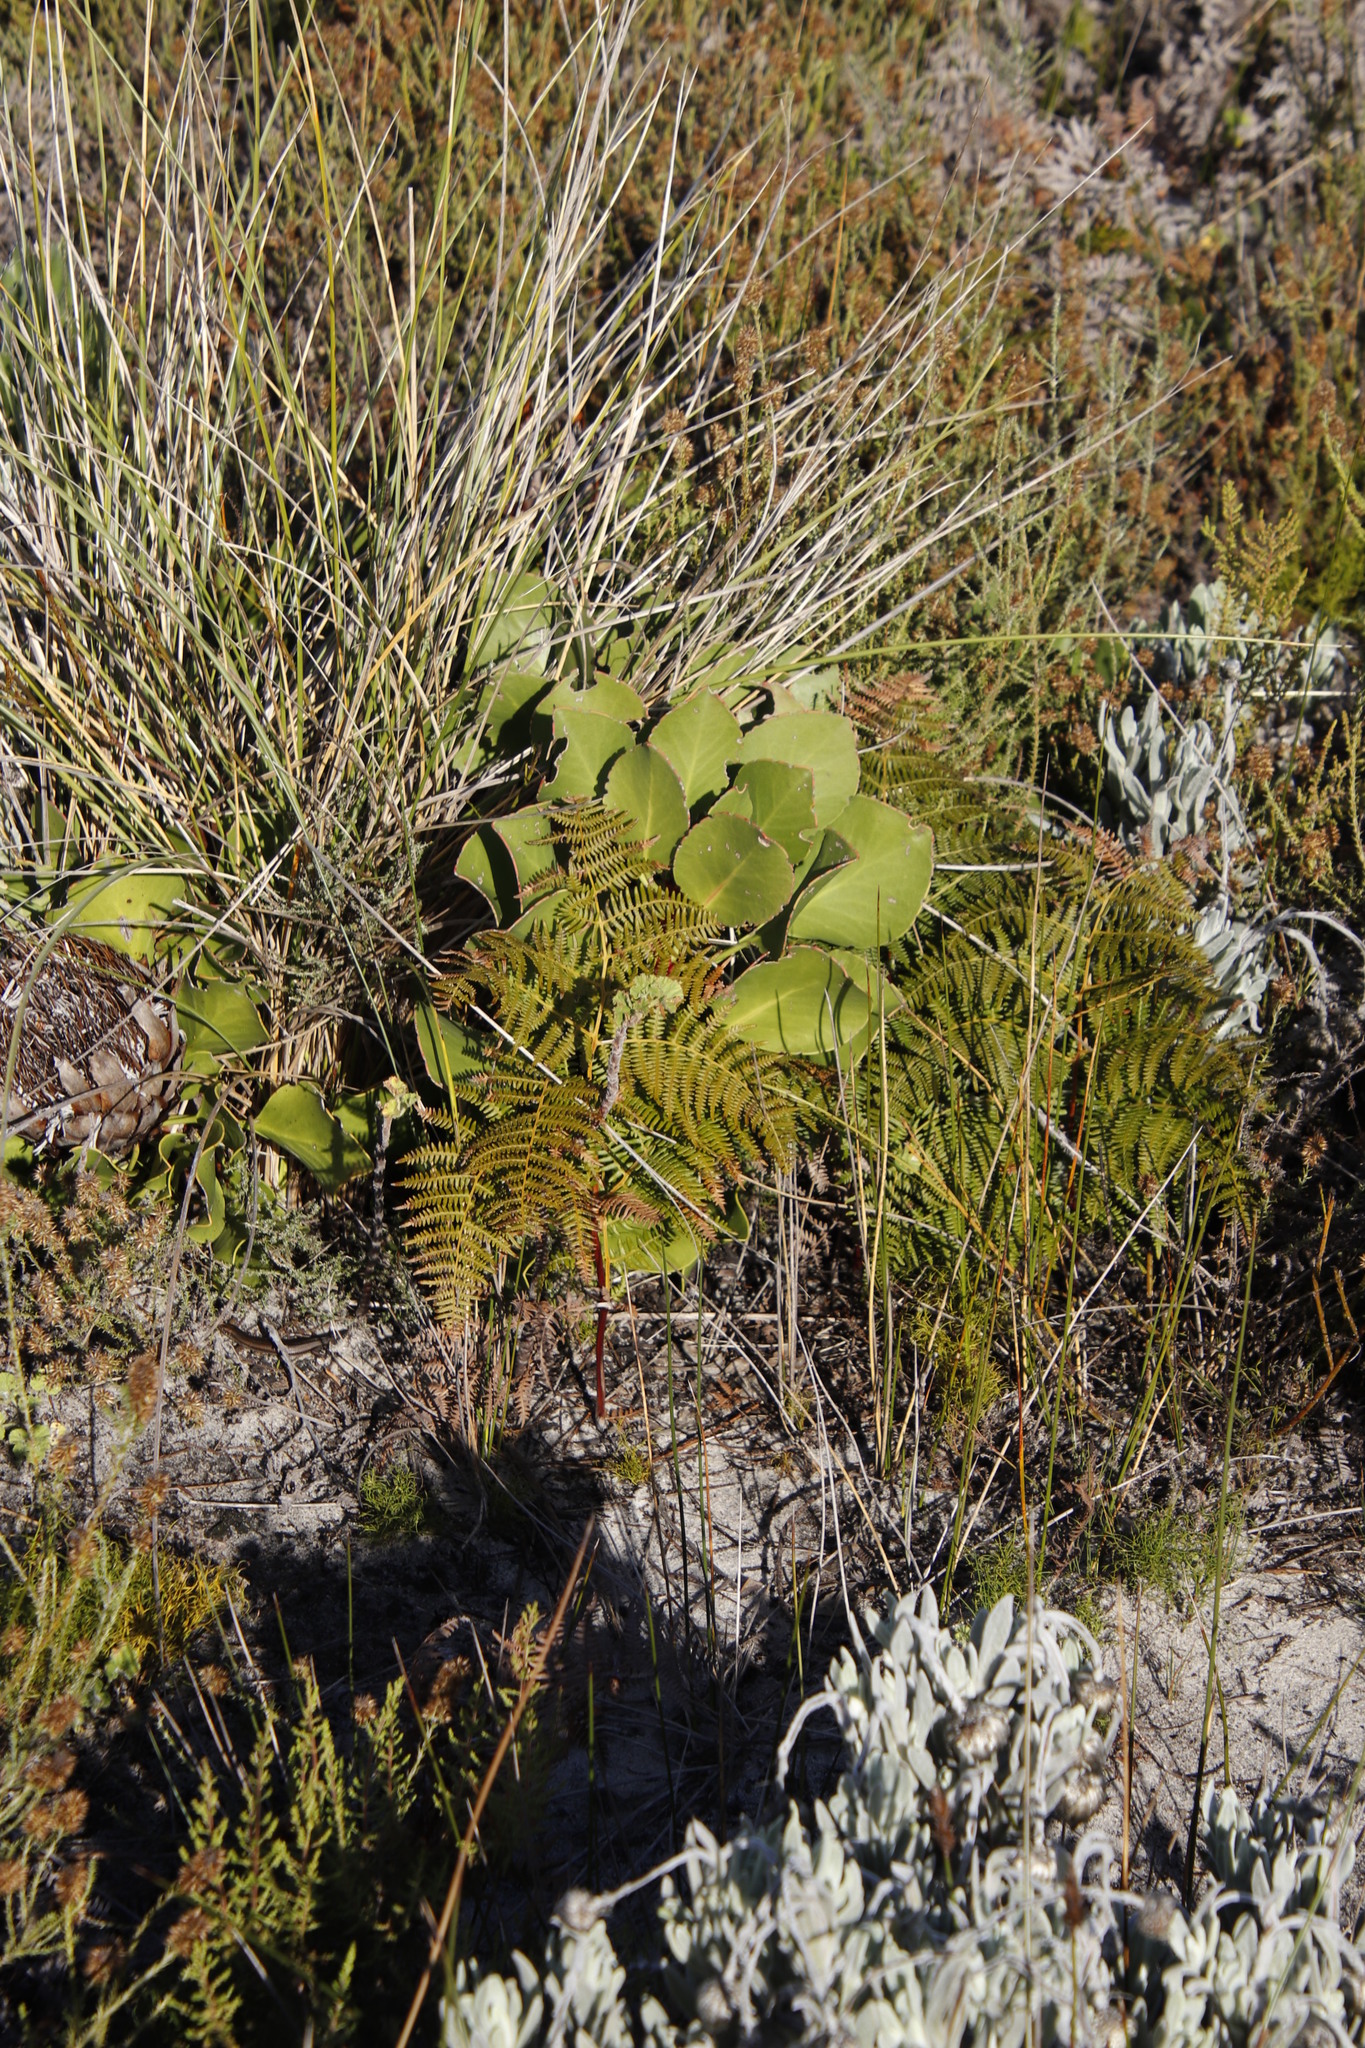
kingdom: Plantae
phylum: Tracheophyta
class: Magnoliopsida
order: Proteales
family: Proteaceae
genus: Protea
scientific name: Protea cynaroides
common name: King protea
